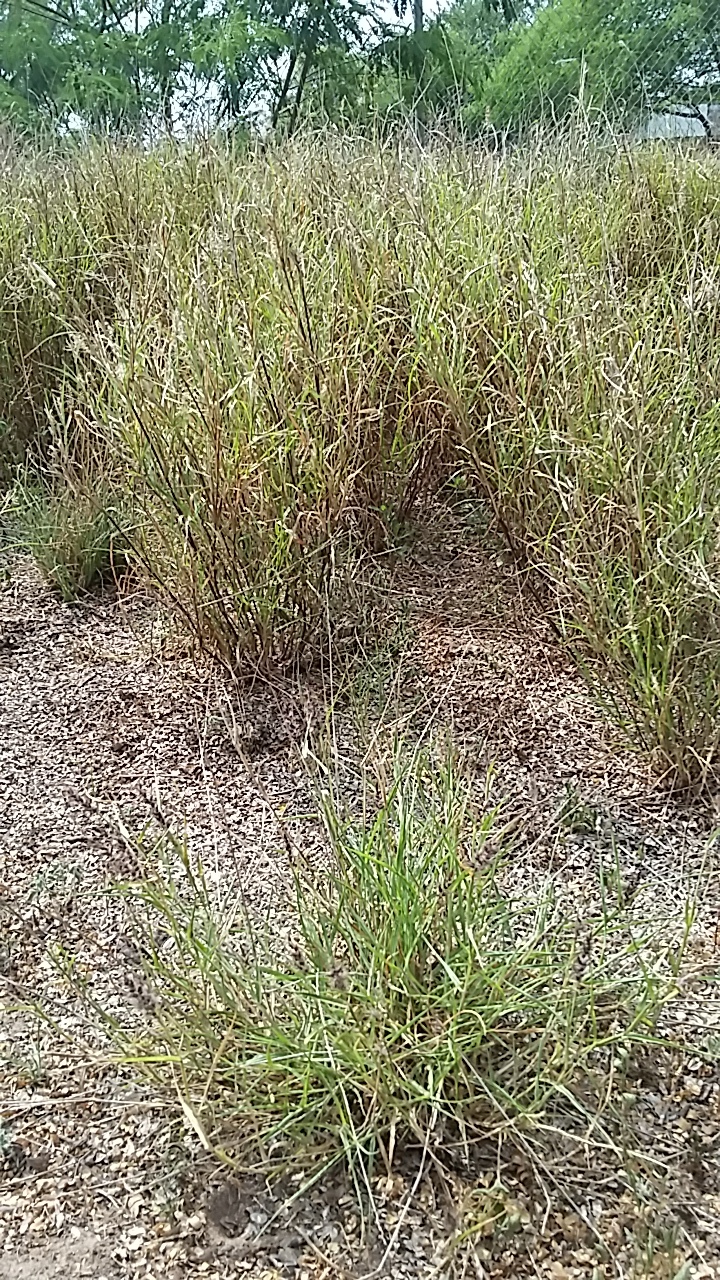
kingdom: Plantae
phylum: Tracheophyta
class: Liliopsida
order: Poales
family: Poaceae
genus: Cenchrus
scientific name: Cenchrus ciliaris
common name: Buffelgrass
